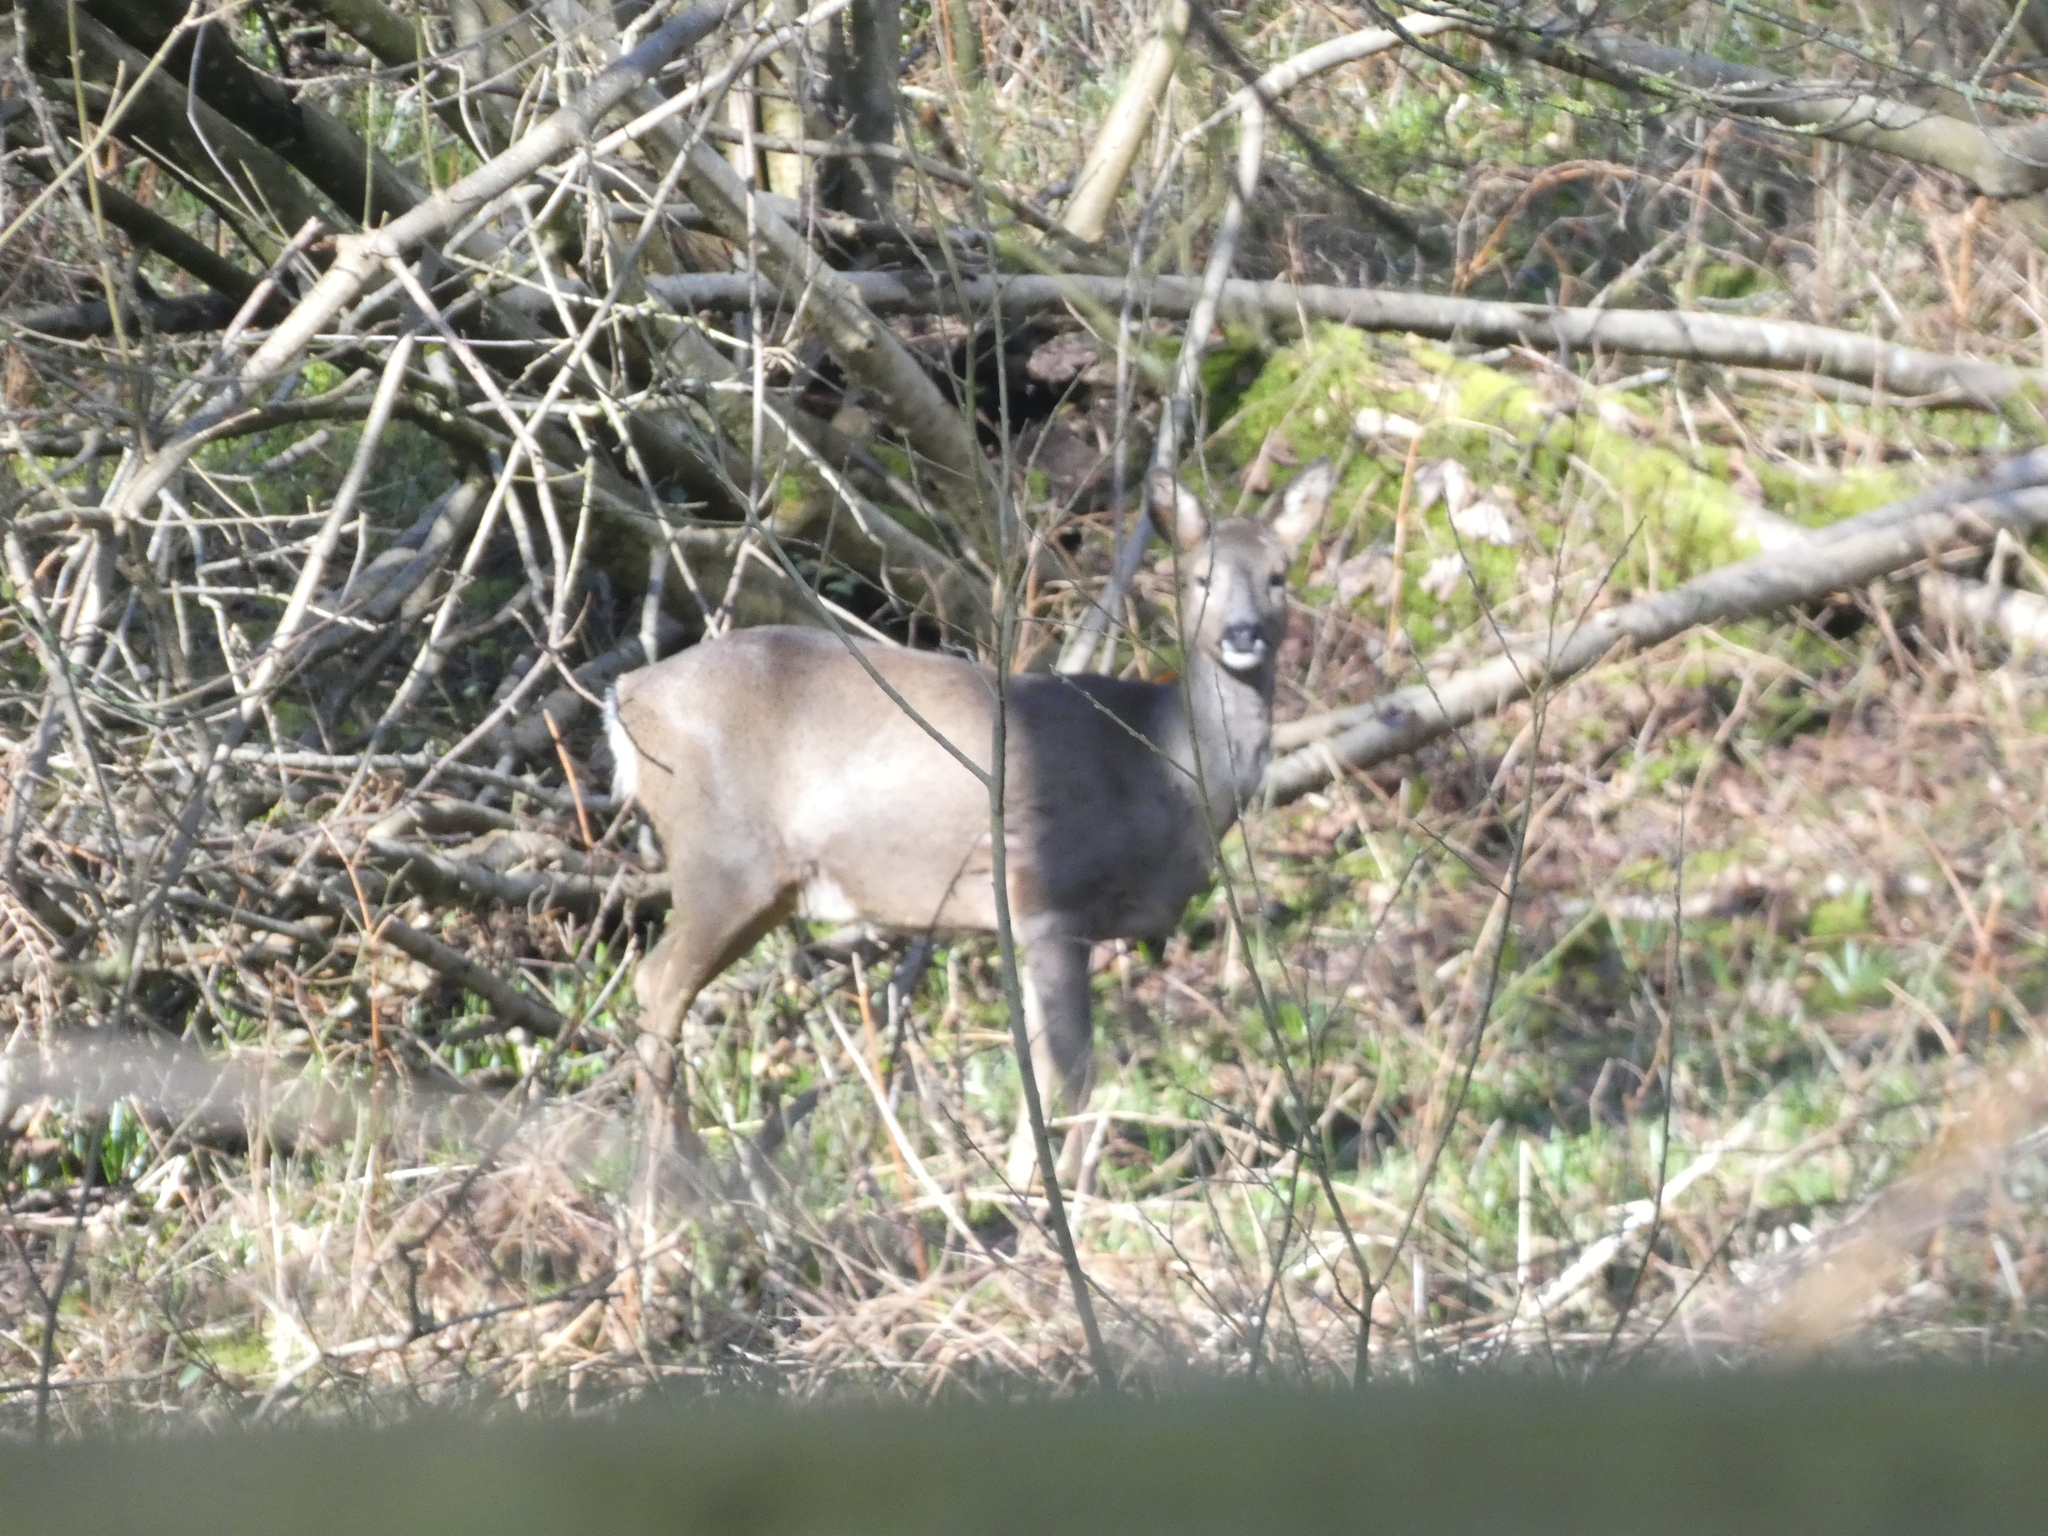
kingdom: Animalia
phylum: Chordata
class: Mammalia
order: Artiodactyla
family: Cervidae
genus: Capreolus
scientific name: Capreolus capreolus
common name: Western roe deer
